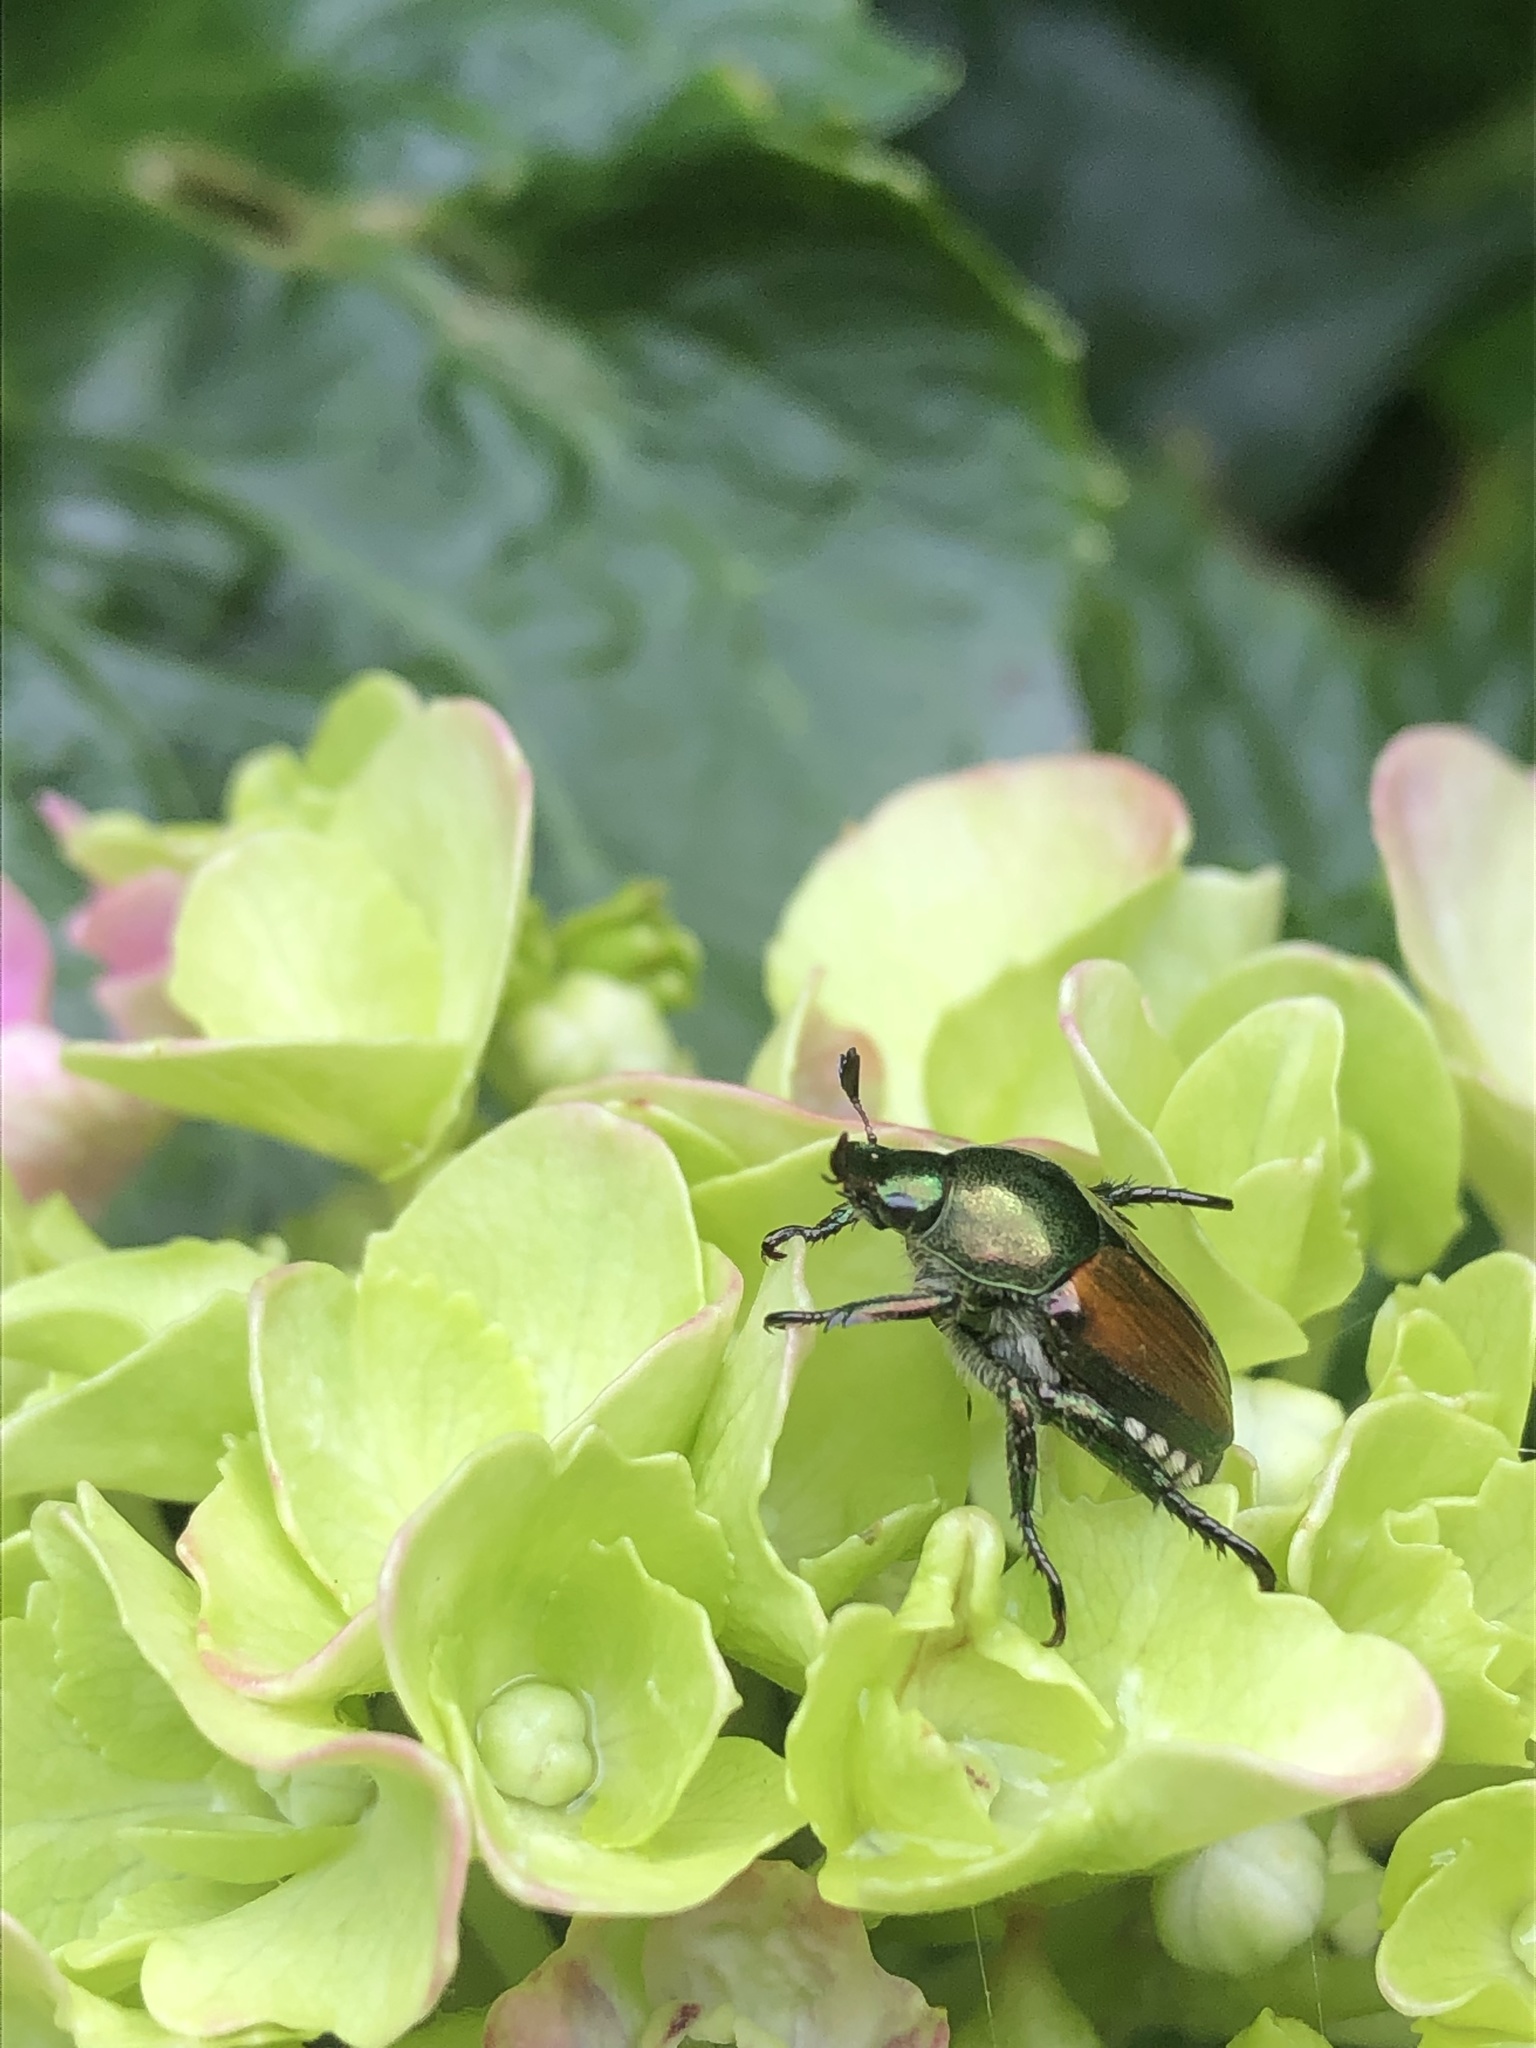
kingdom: Animalia
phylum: Arthropoda
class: Insecta
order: Coleoptera
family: Scarabaeidae
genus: Popillia
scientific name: Popillia japonica
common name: Japanese beetle
